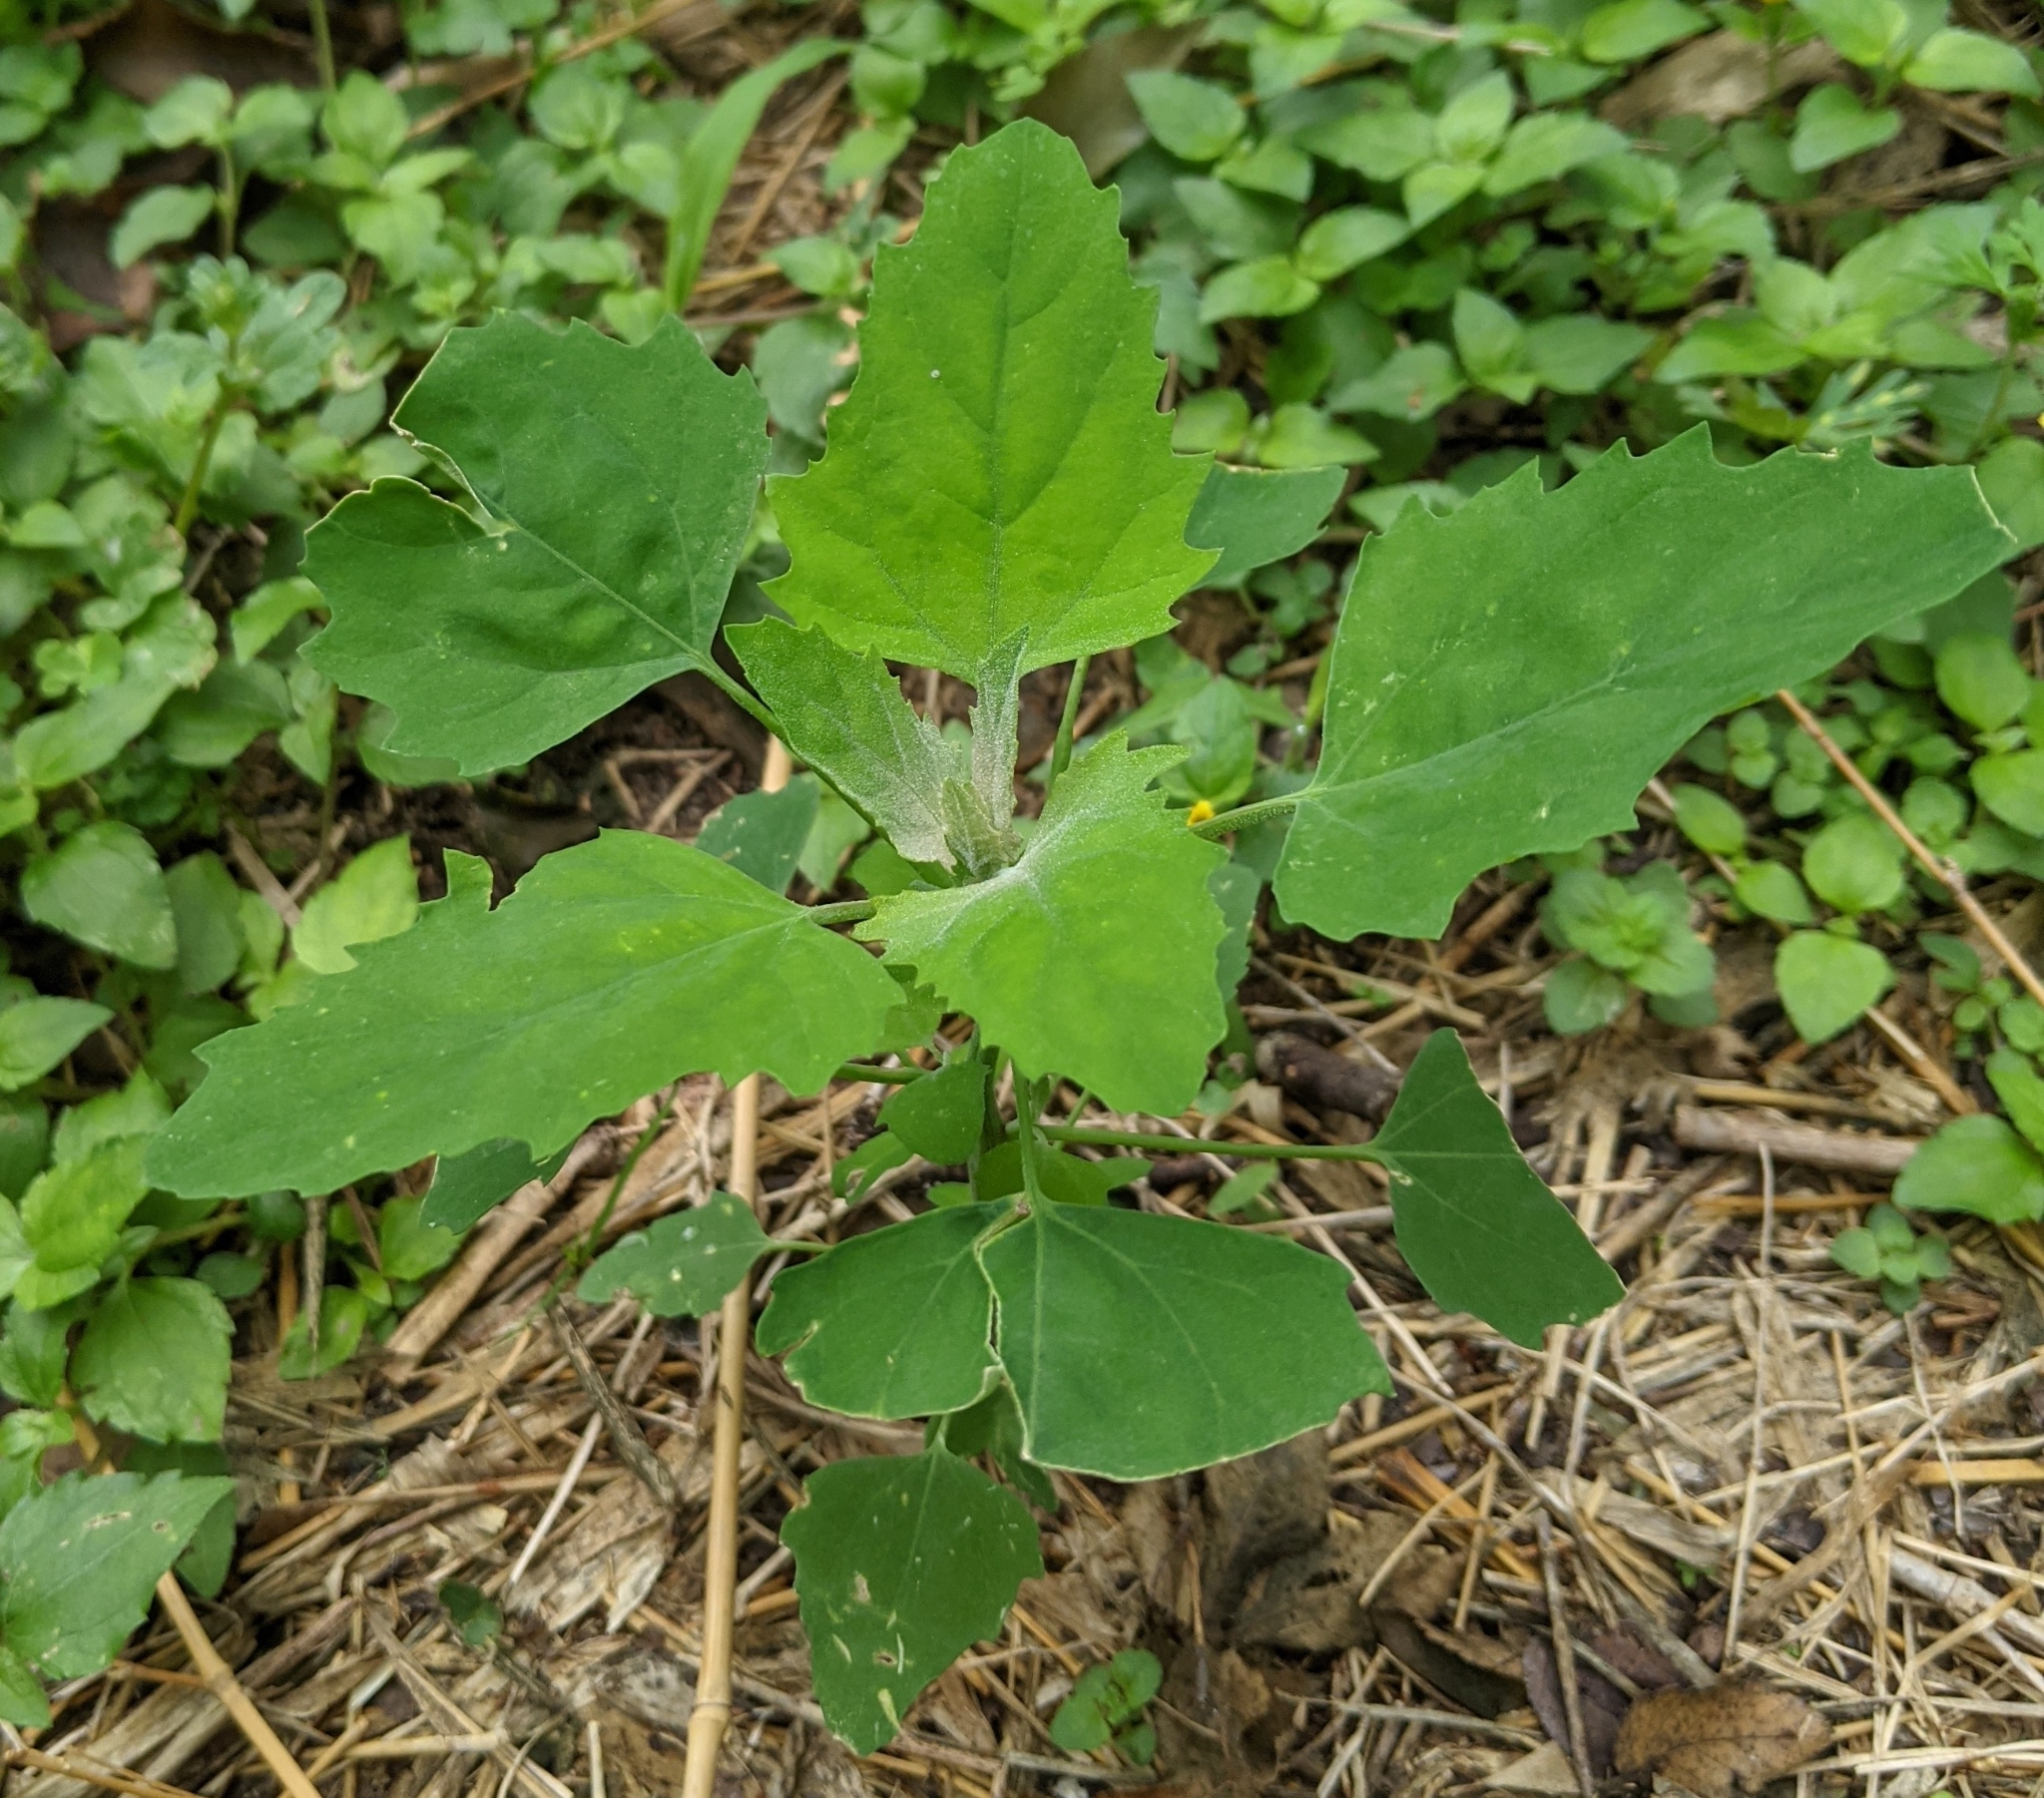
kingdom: Plantae
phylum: Tracheophyta
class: Magnoliopsida
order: Caryophyllales
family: Amaranthaceae
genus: Chenopodium
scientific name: Chenopodium album
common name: Fat-hen
